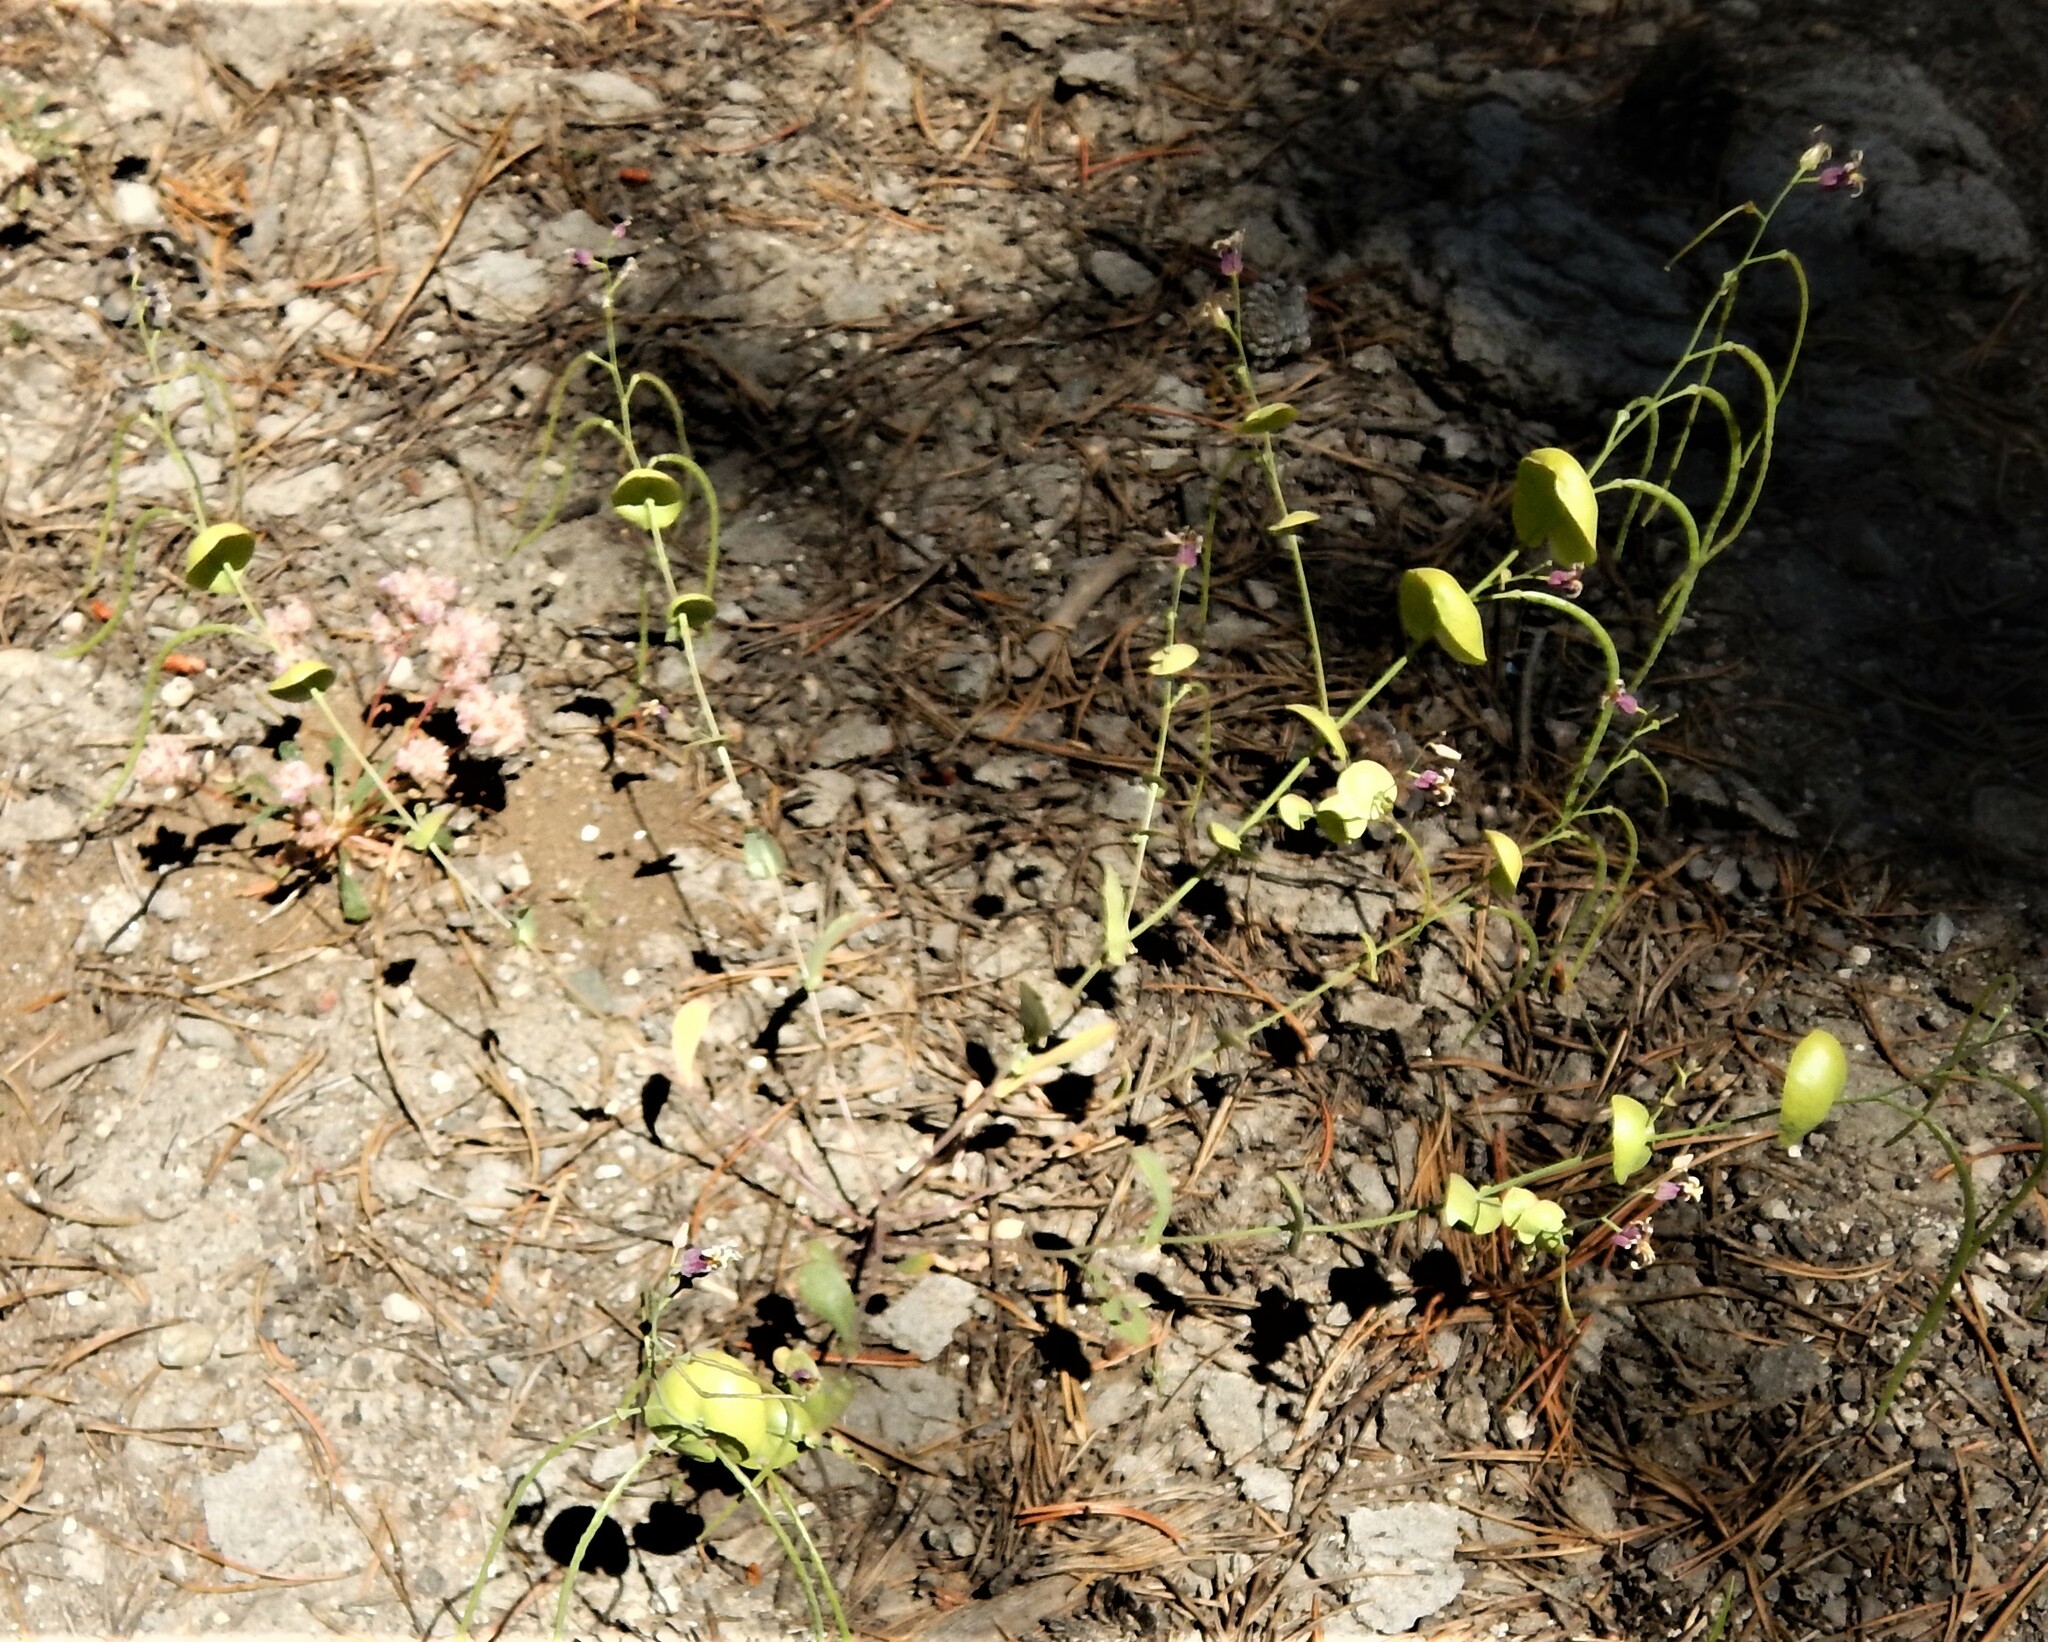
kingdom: Plantae
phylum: Tracheophyta
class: Magnoliopsida
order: Brassicales
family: Brassicaceae
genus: Streptanthus
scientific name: Streptanthus tortuosus
